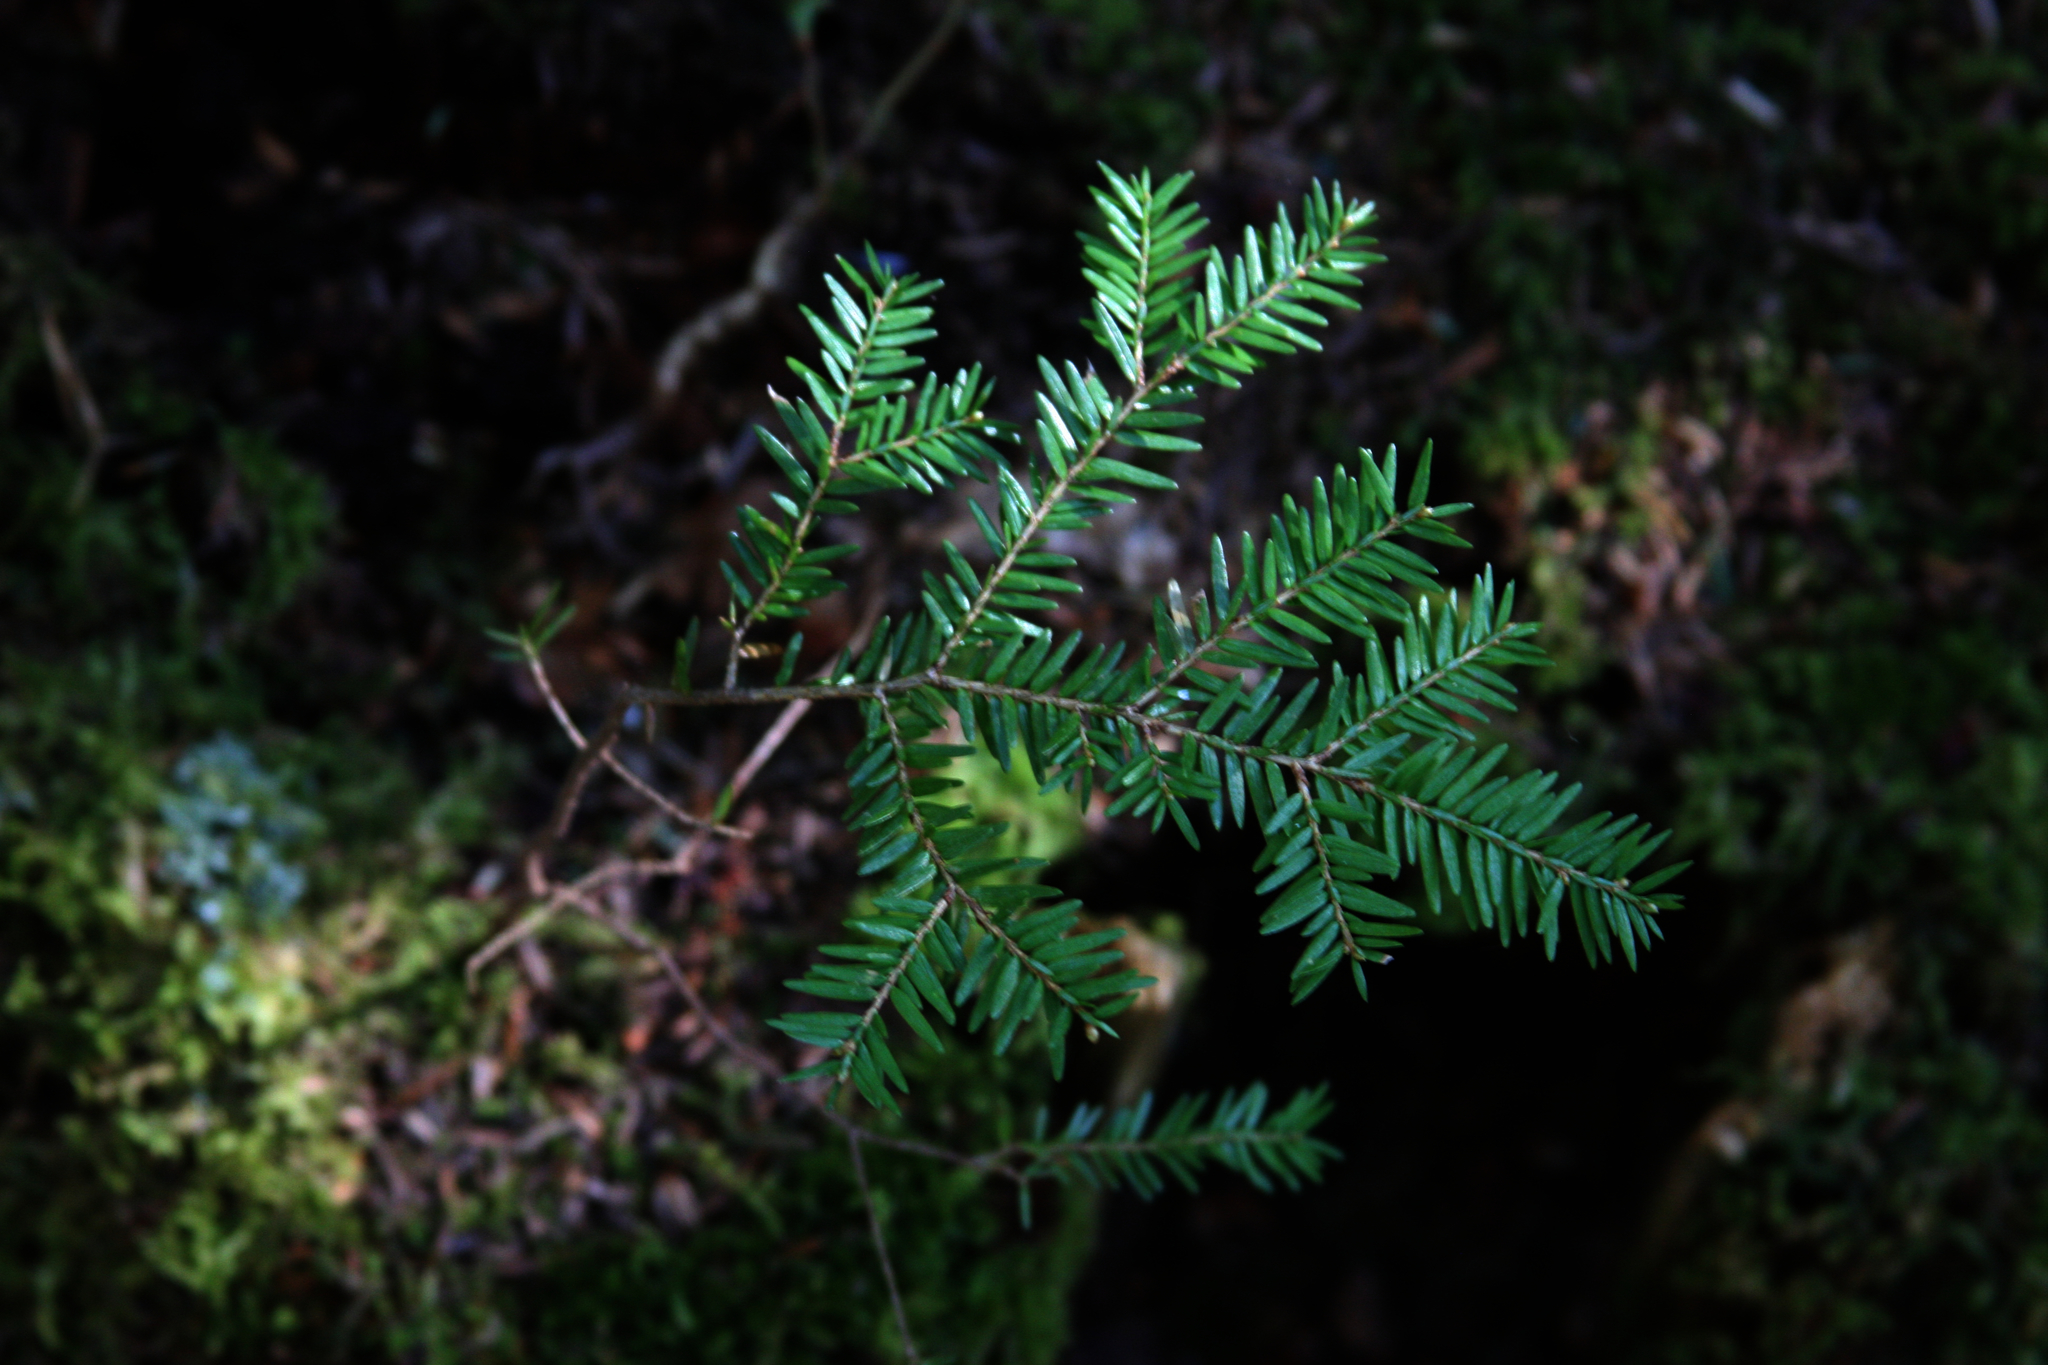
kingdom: Plantae
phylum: Tracheophyta
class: Pinopsida
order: Pinales
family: Pinaceae
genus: Tsuga
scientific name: Tsuga canadensis
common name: Eastern hemlock
